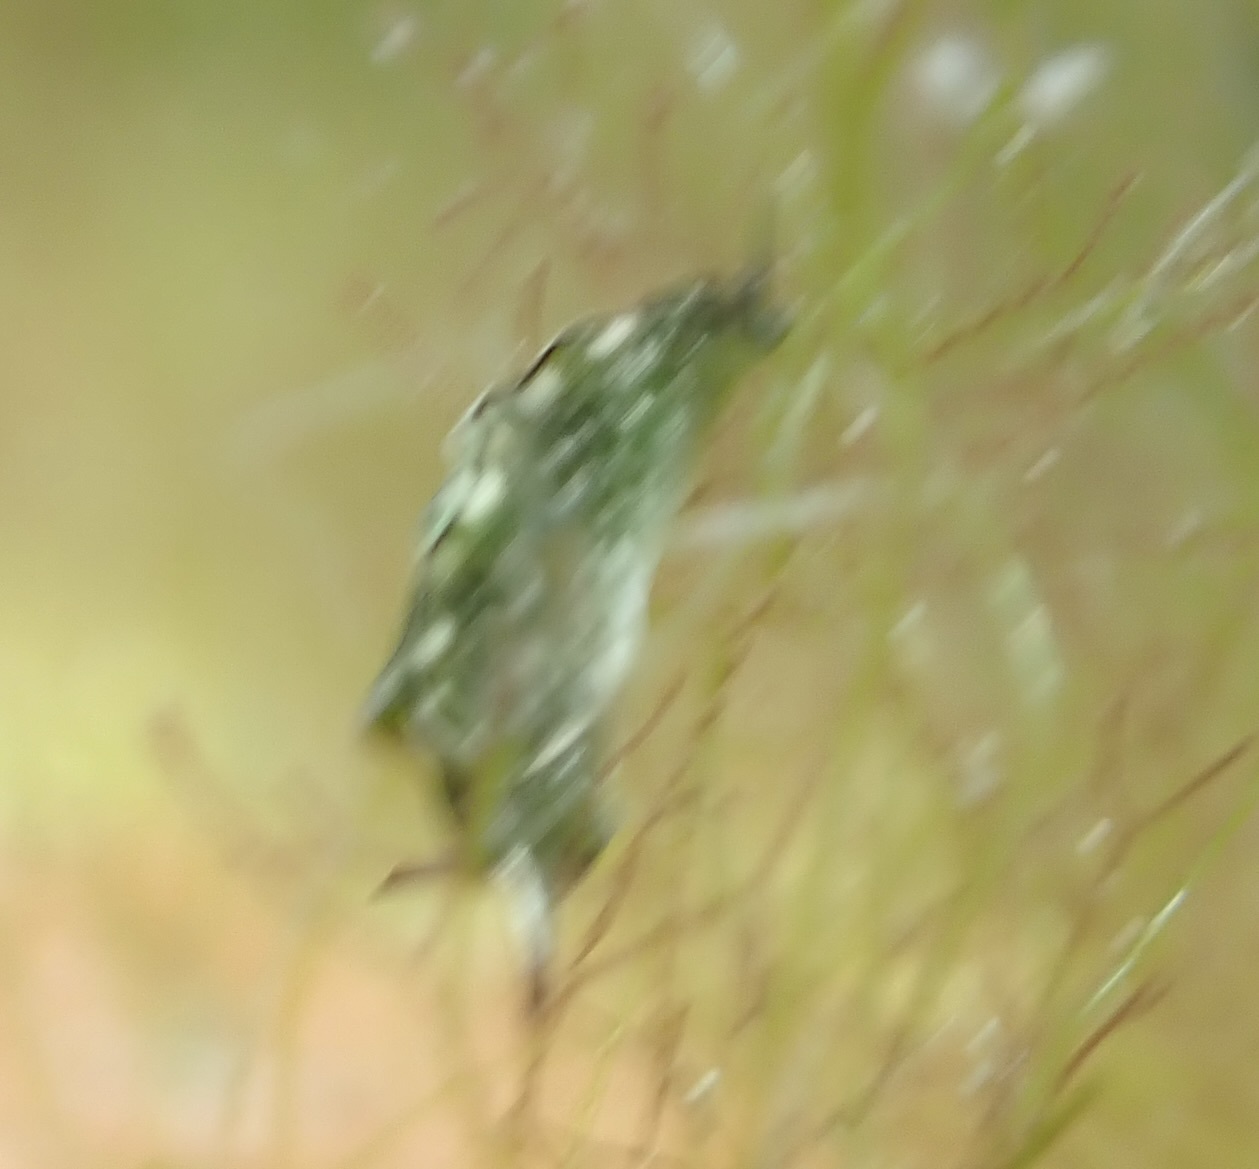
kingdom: Animalia
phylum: Mollusca
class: Gastropoda
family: Plakobranchidae
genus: Elysia
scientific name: Elysia coodgeensis
